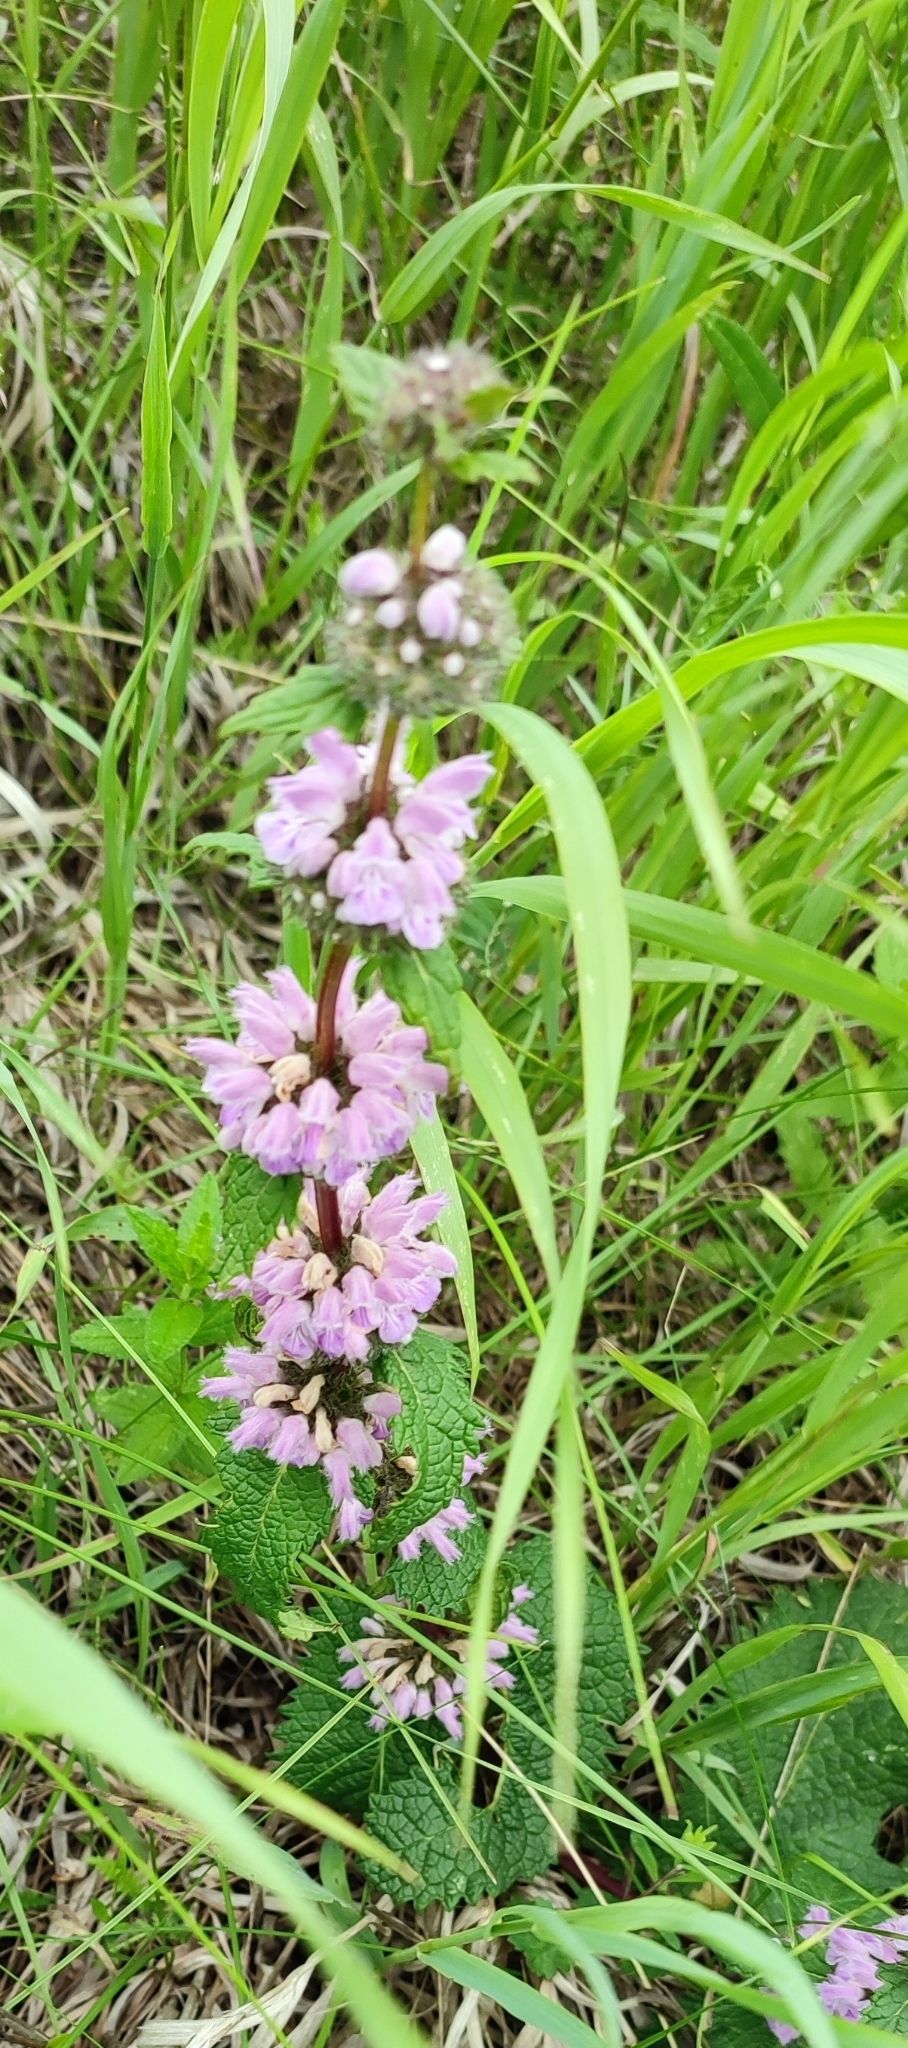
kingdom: Plantae
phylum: Tracheophyta
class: Magnoliopsida
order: Lamiales
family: Lamiaceae
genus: Phlomoides
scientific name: Phlomoides tuberosa
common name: Tuberous jerusalem sage
